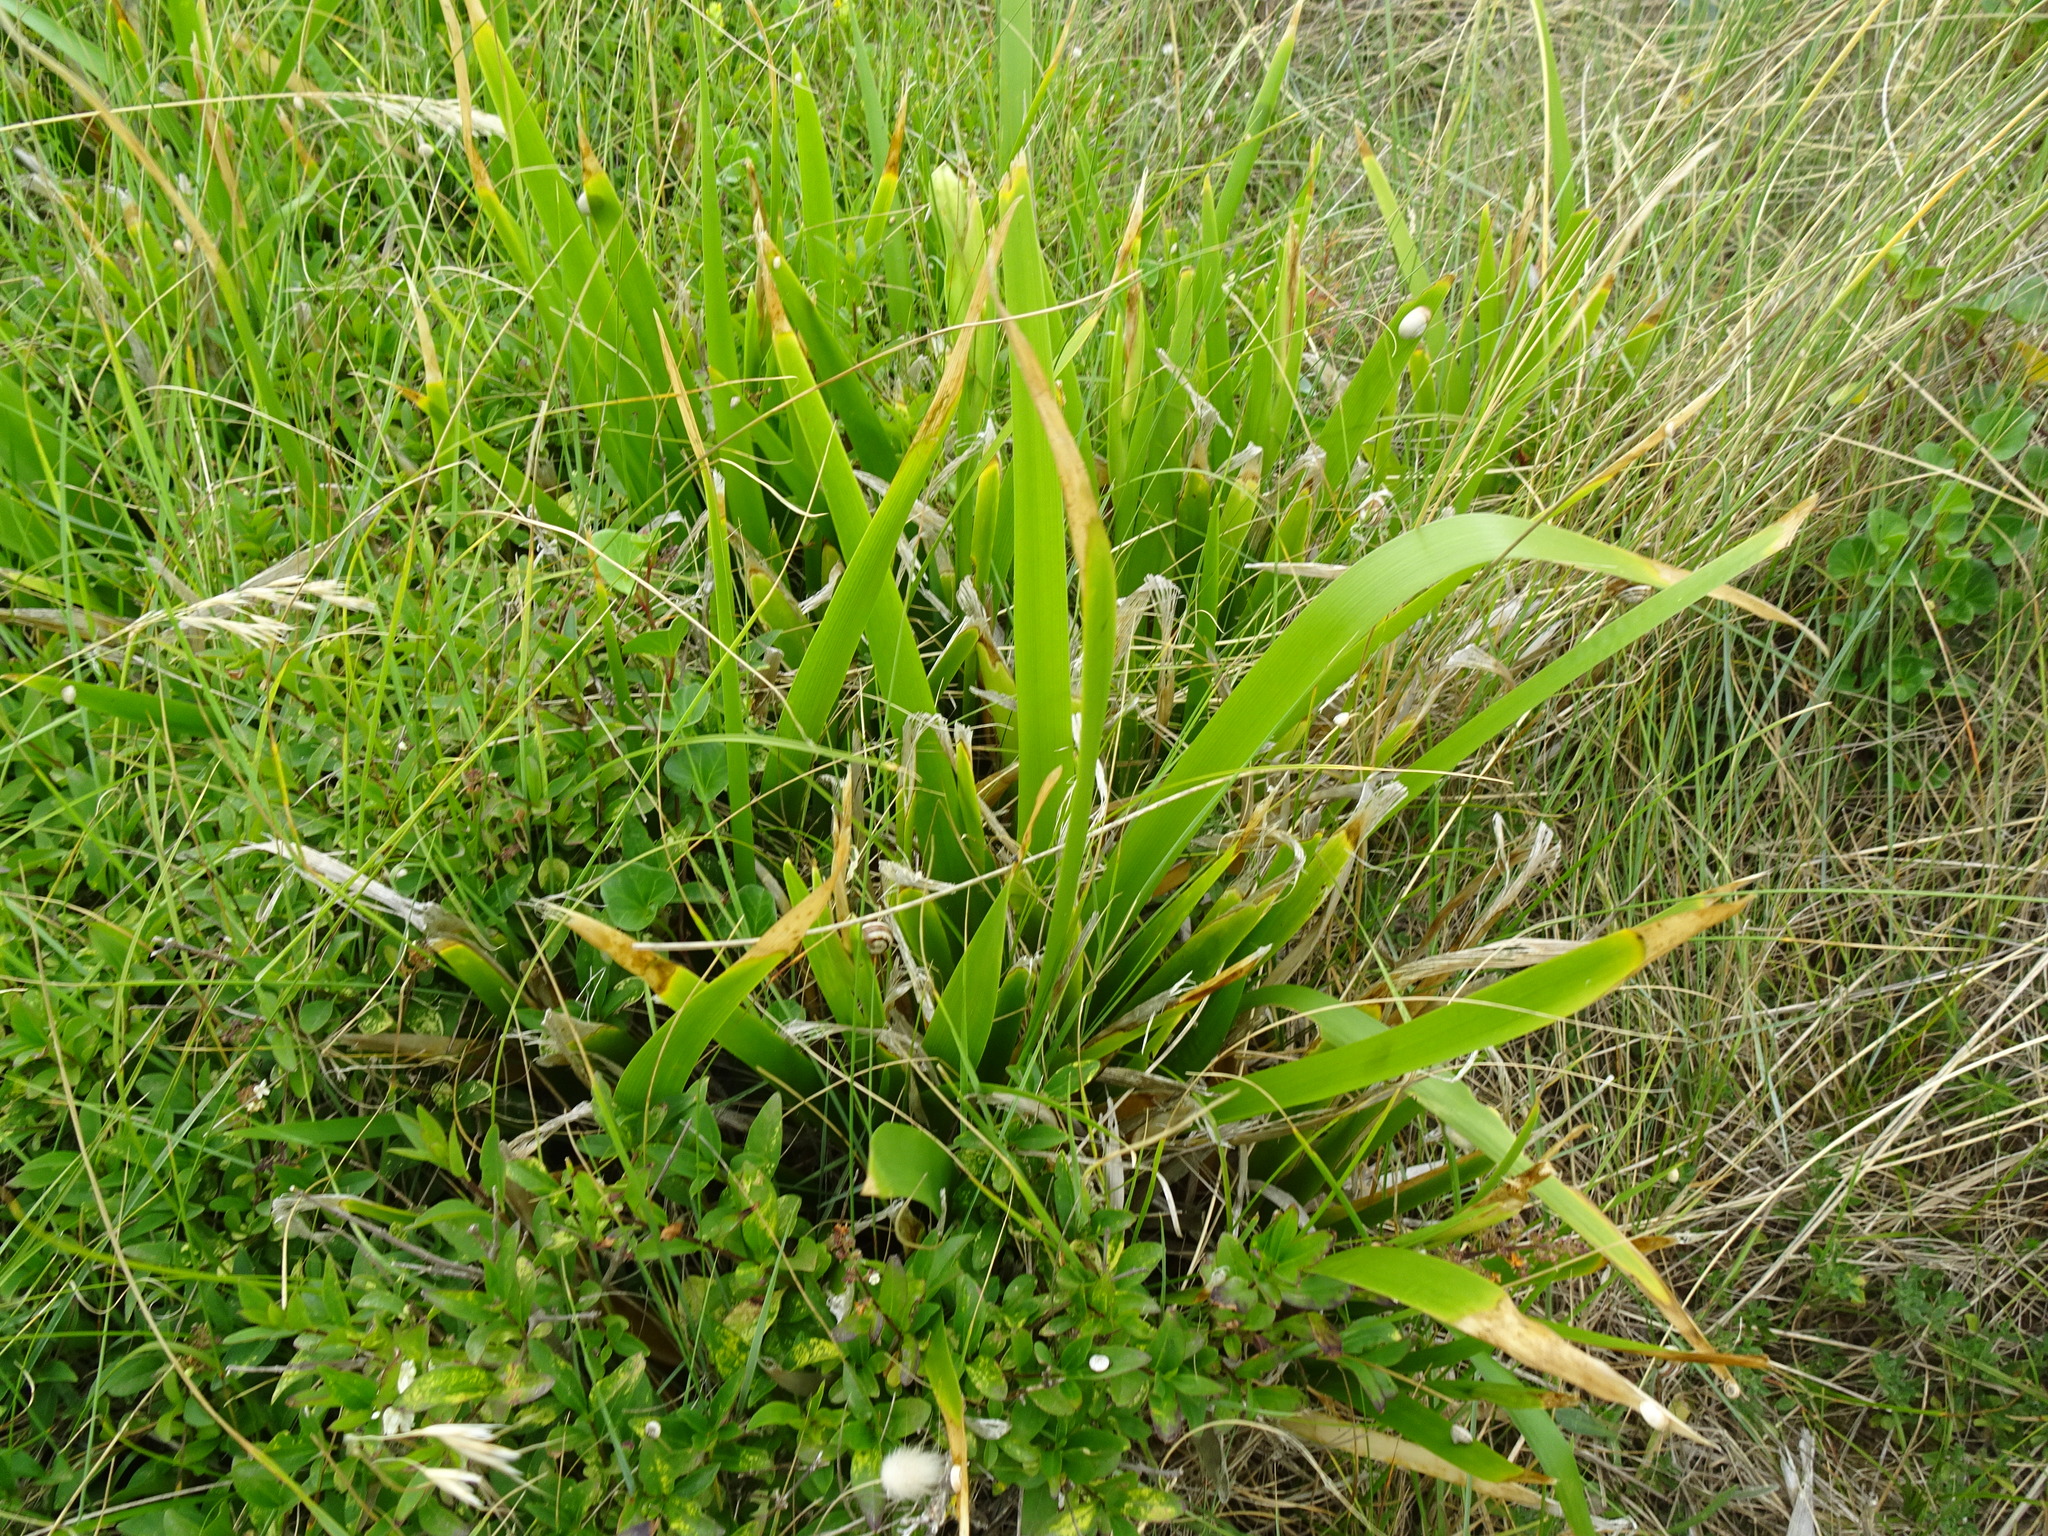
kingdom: Plantae
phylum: Tracheophyta
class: Liliopsida
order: Asparagales
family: Iridaceae
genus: Iris
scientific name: Iris foetidissima
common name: Stinking iris
